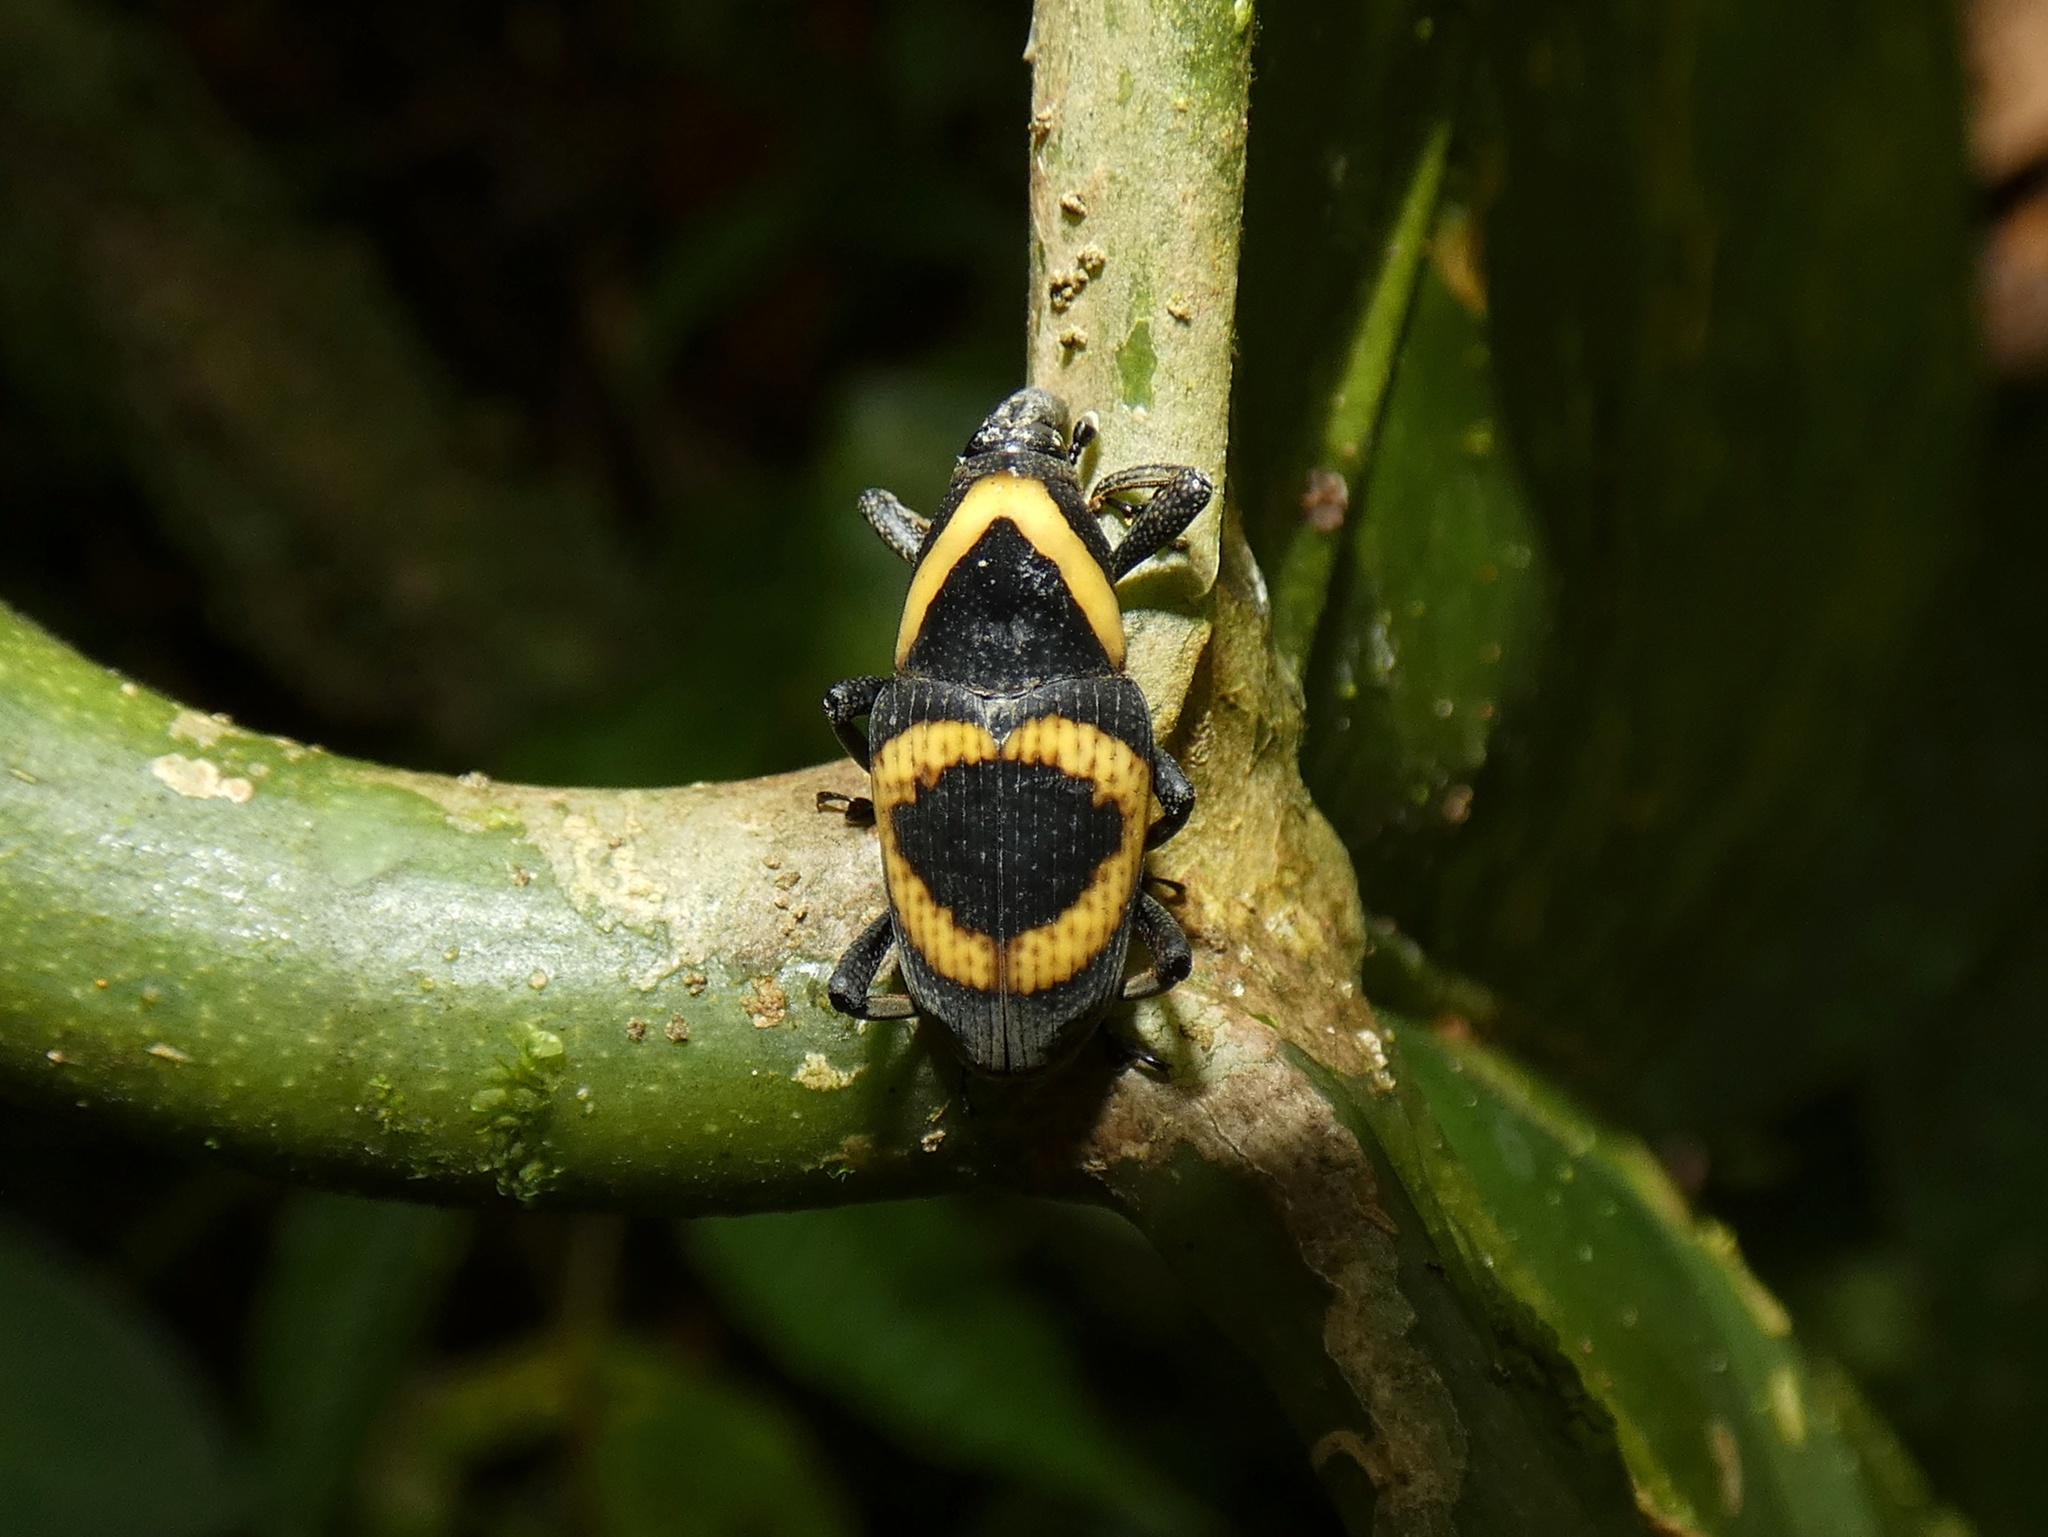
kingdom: Animalia
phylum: Arthropoda
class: Insecta
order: Coleoptera
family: Dryophthoridae
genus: Cactophagus
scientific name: Cactophagus
